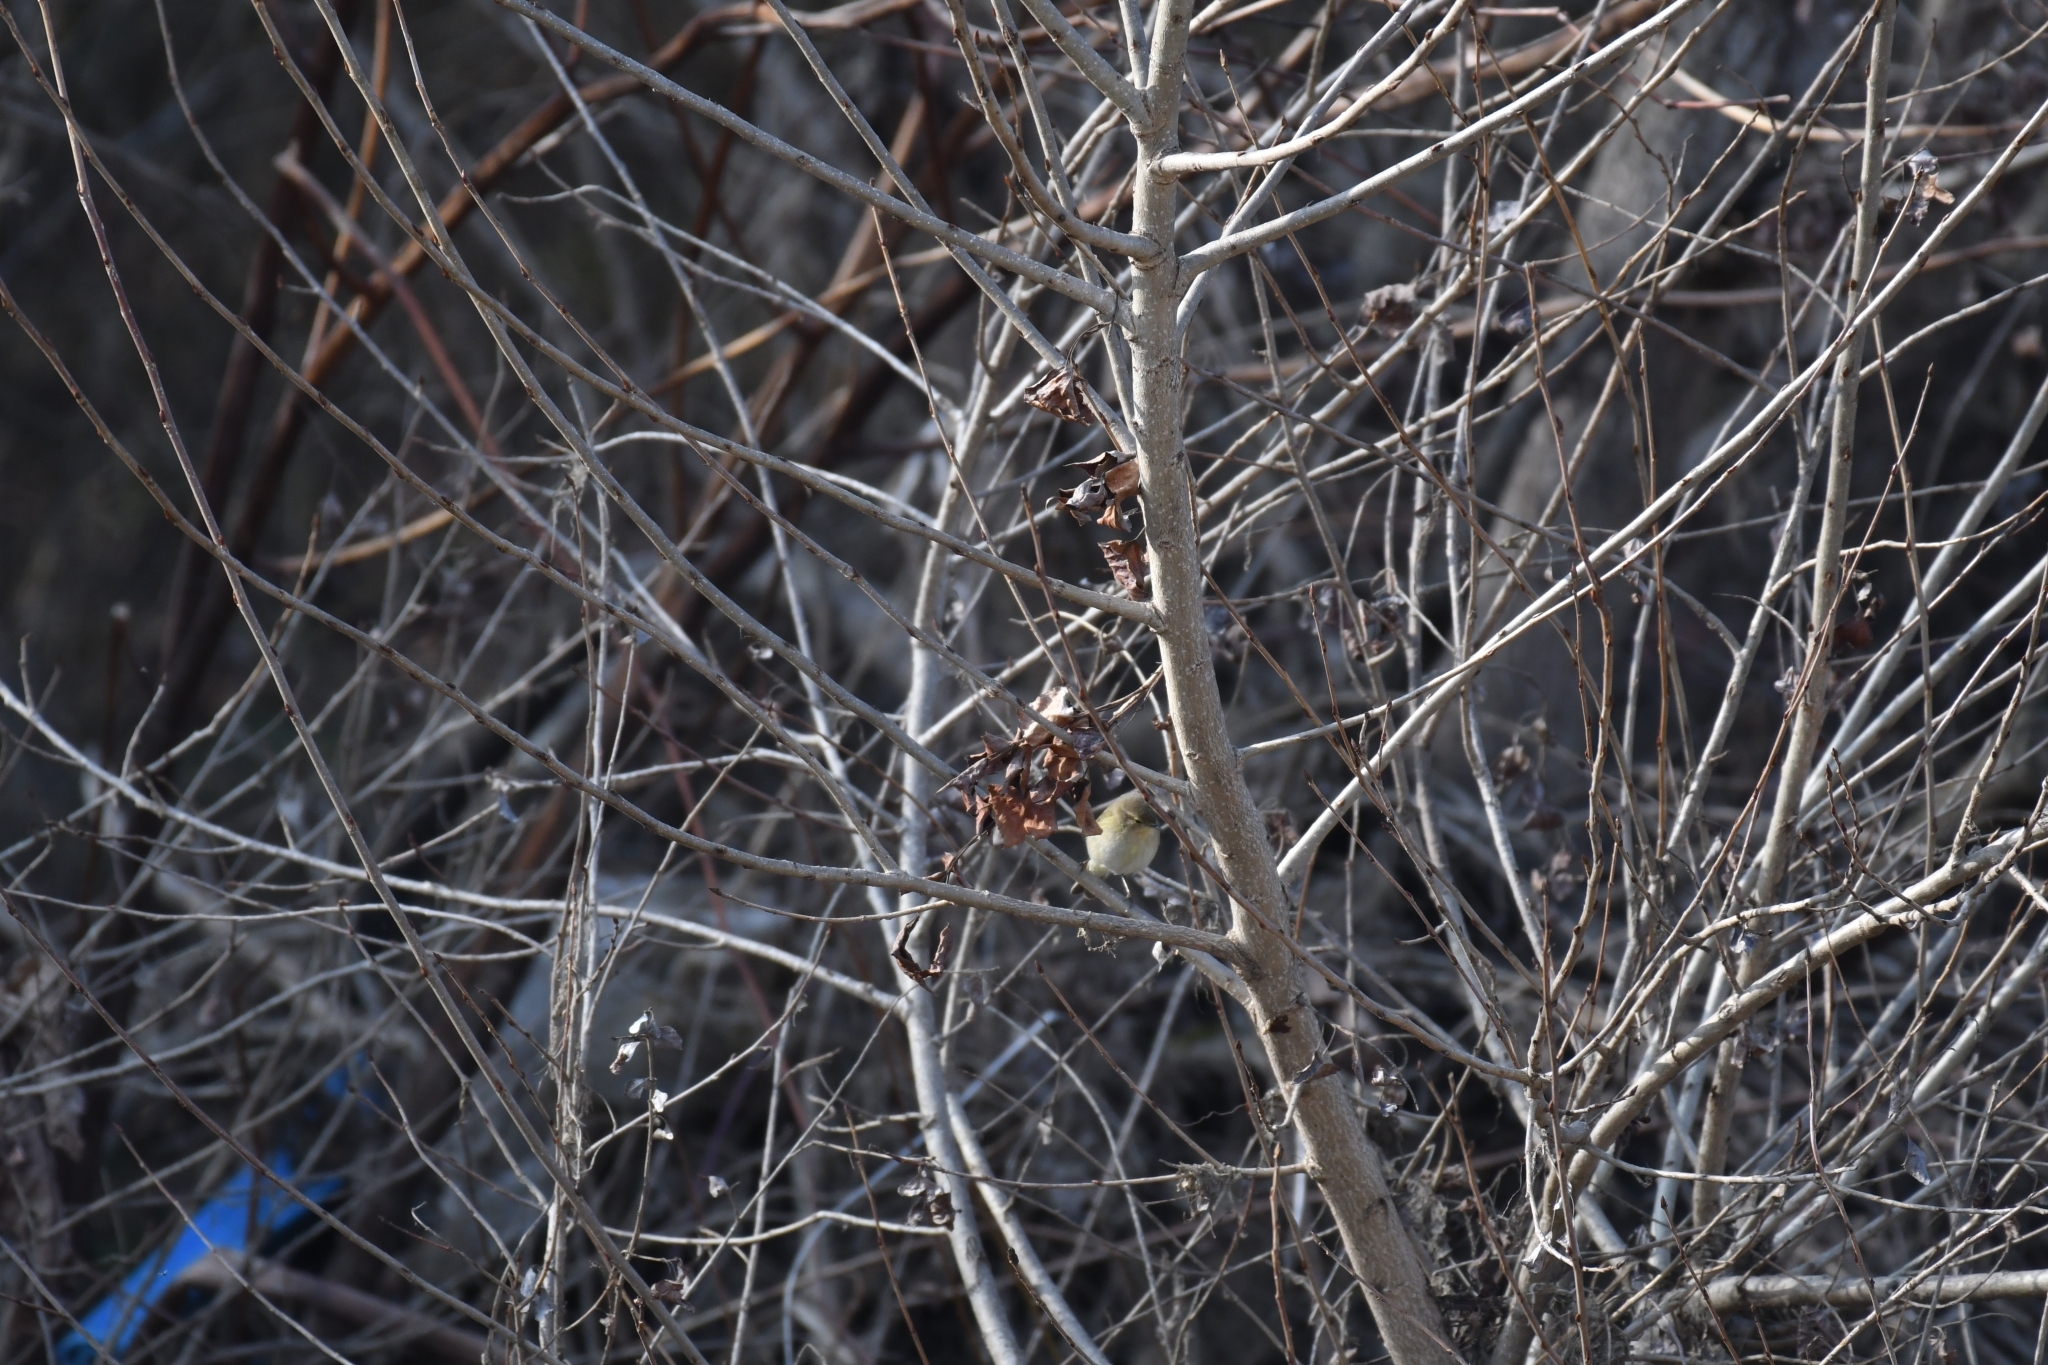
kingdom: Animalia
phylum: Chordata
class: Aves
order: Passeriformes
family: Phylloscopidae
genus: Phylloscopus
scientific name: Phylloscopus collybita
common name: Common chiffchaff
